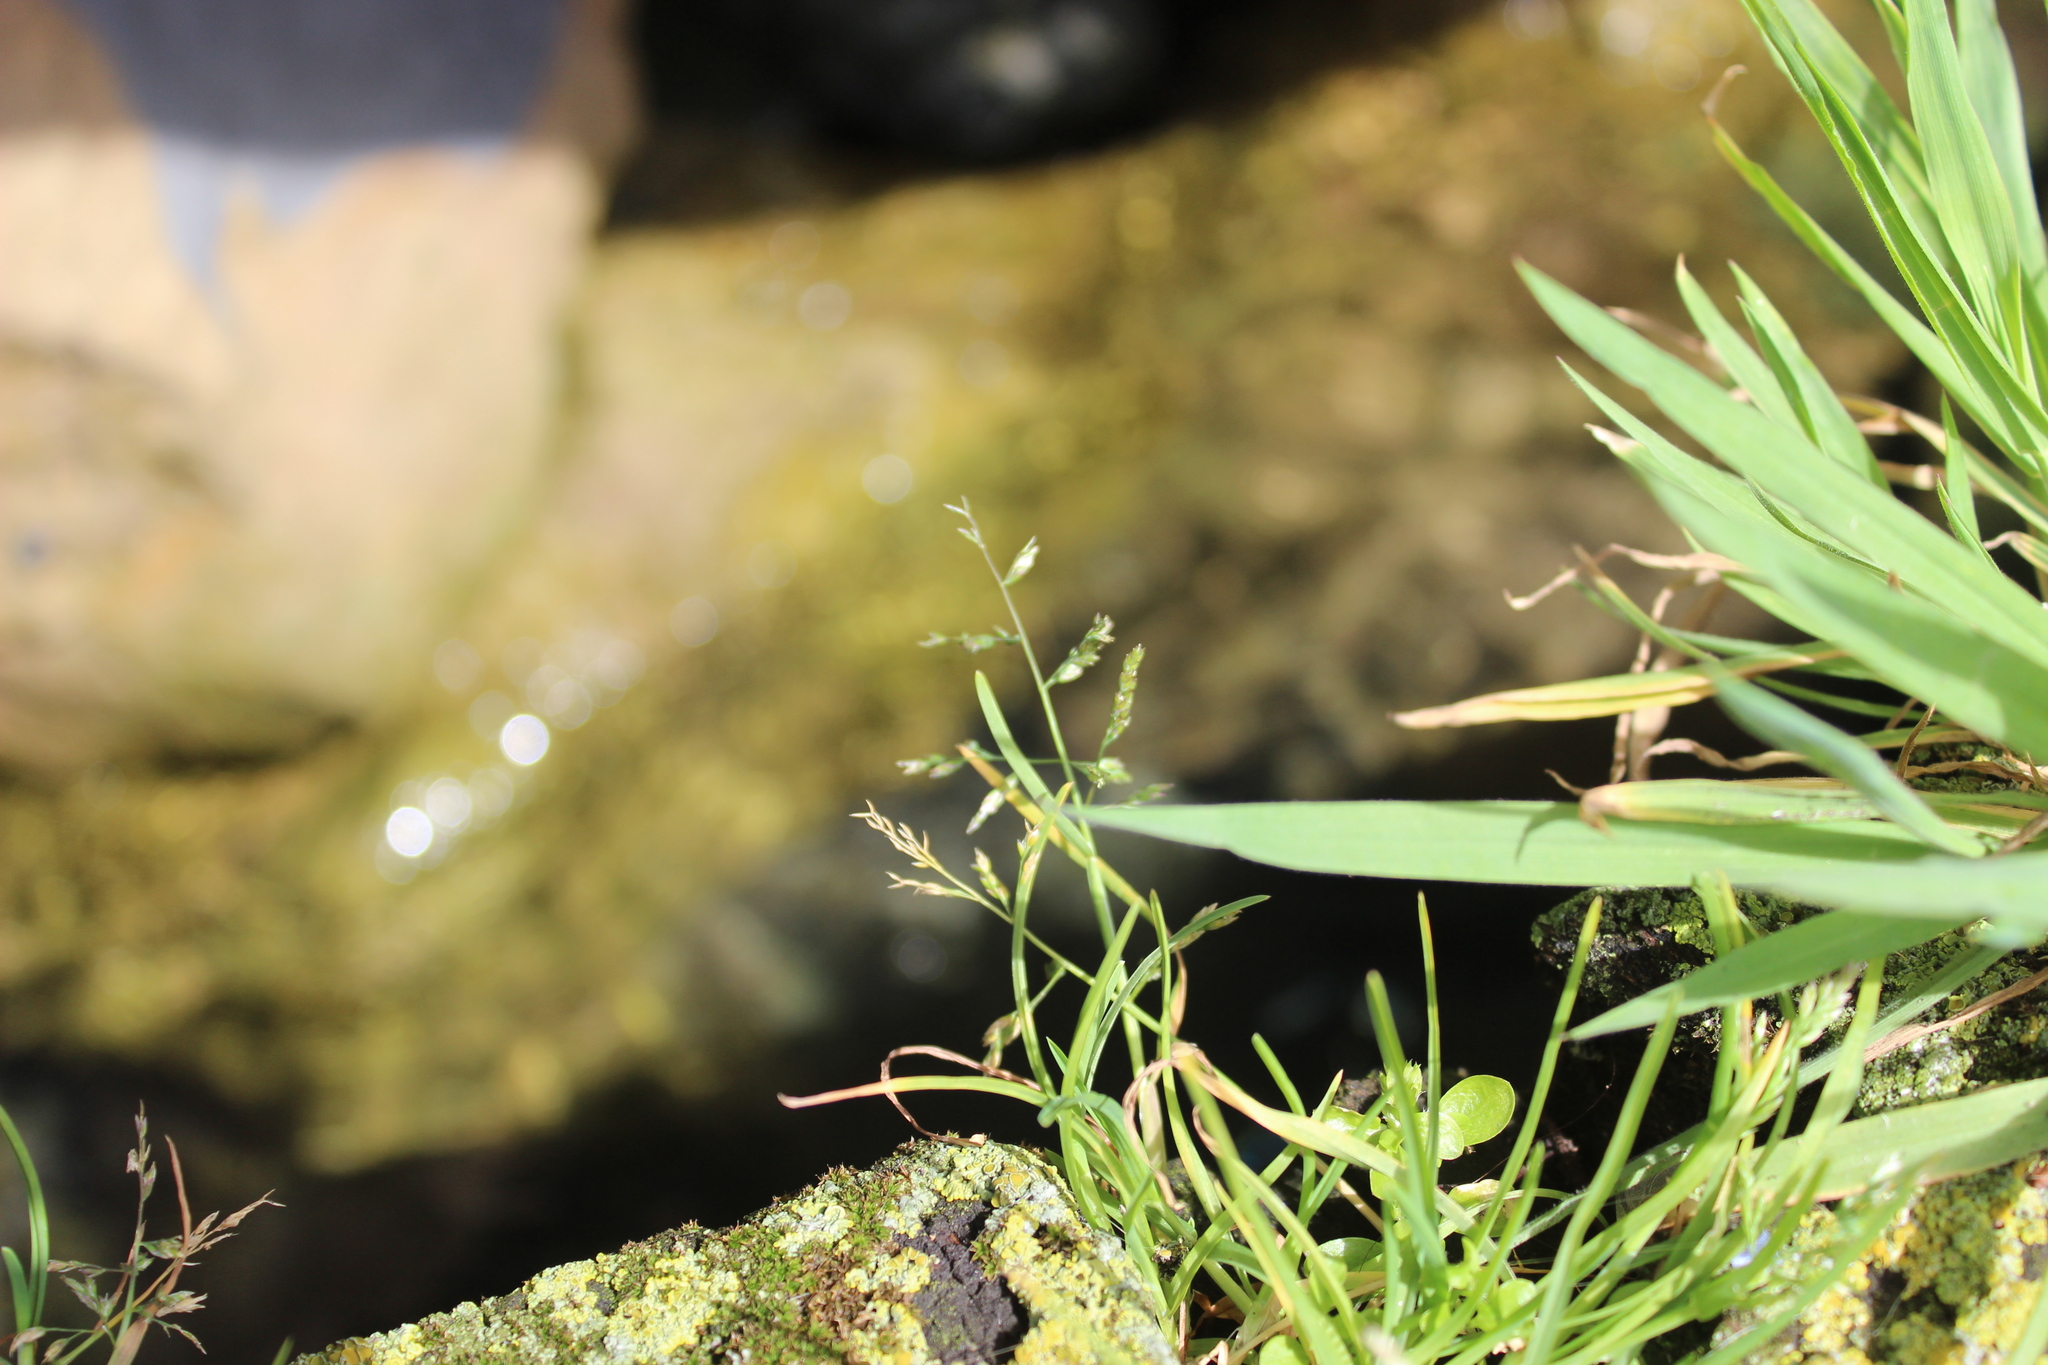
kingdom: Plantae
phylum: Tracheophyta
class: Liliopsida
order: Poales
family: Poaceae
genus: Poa
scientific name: Poa annua
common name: Annual bluegrass
